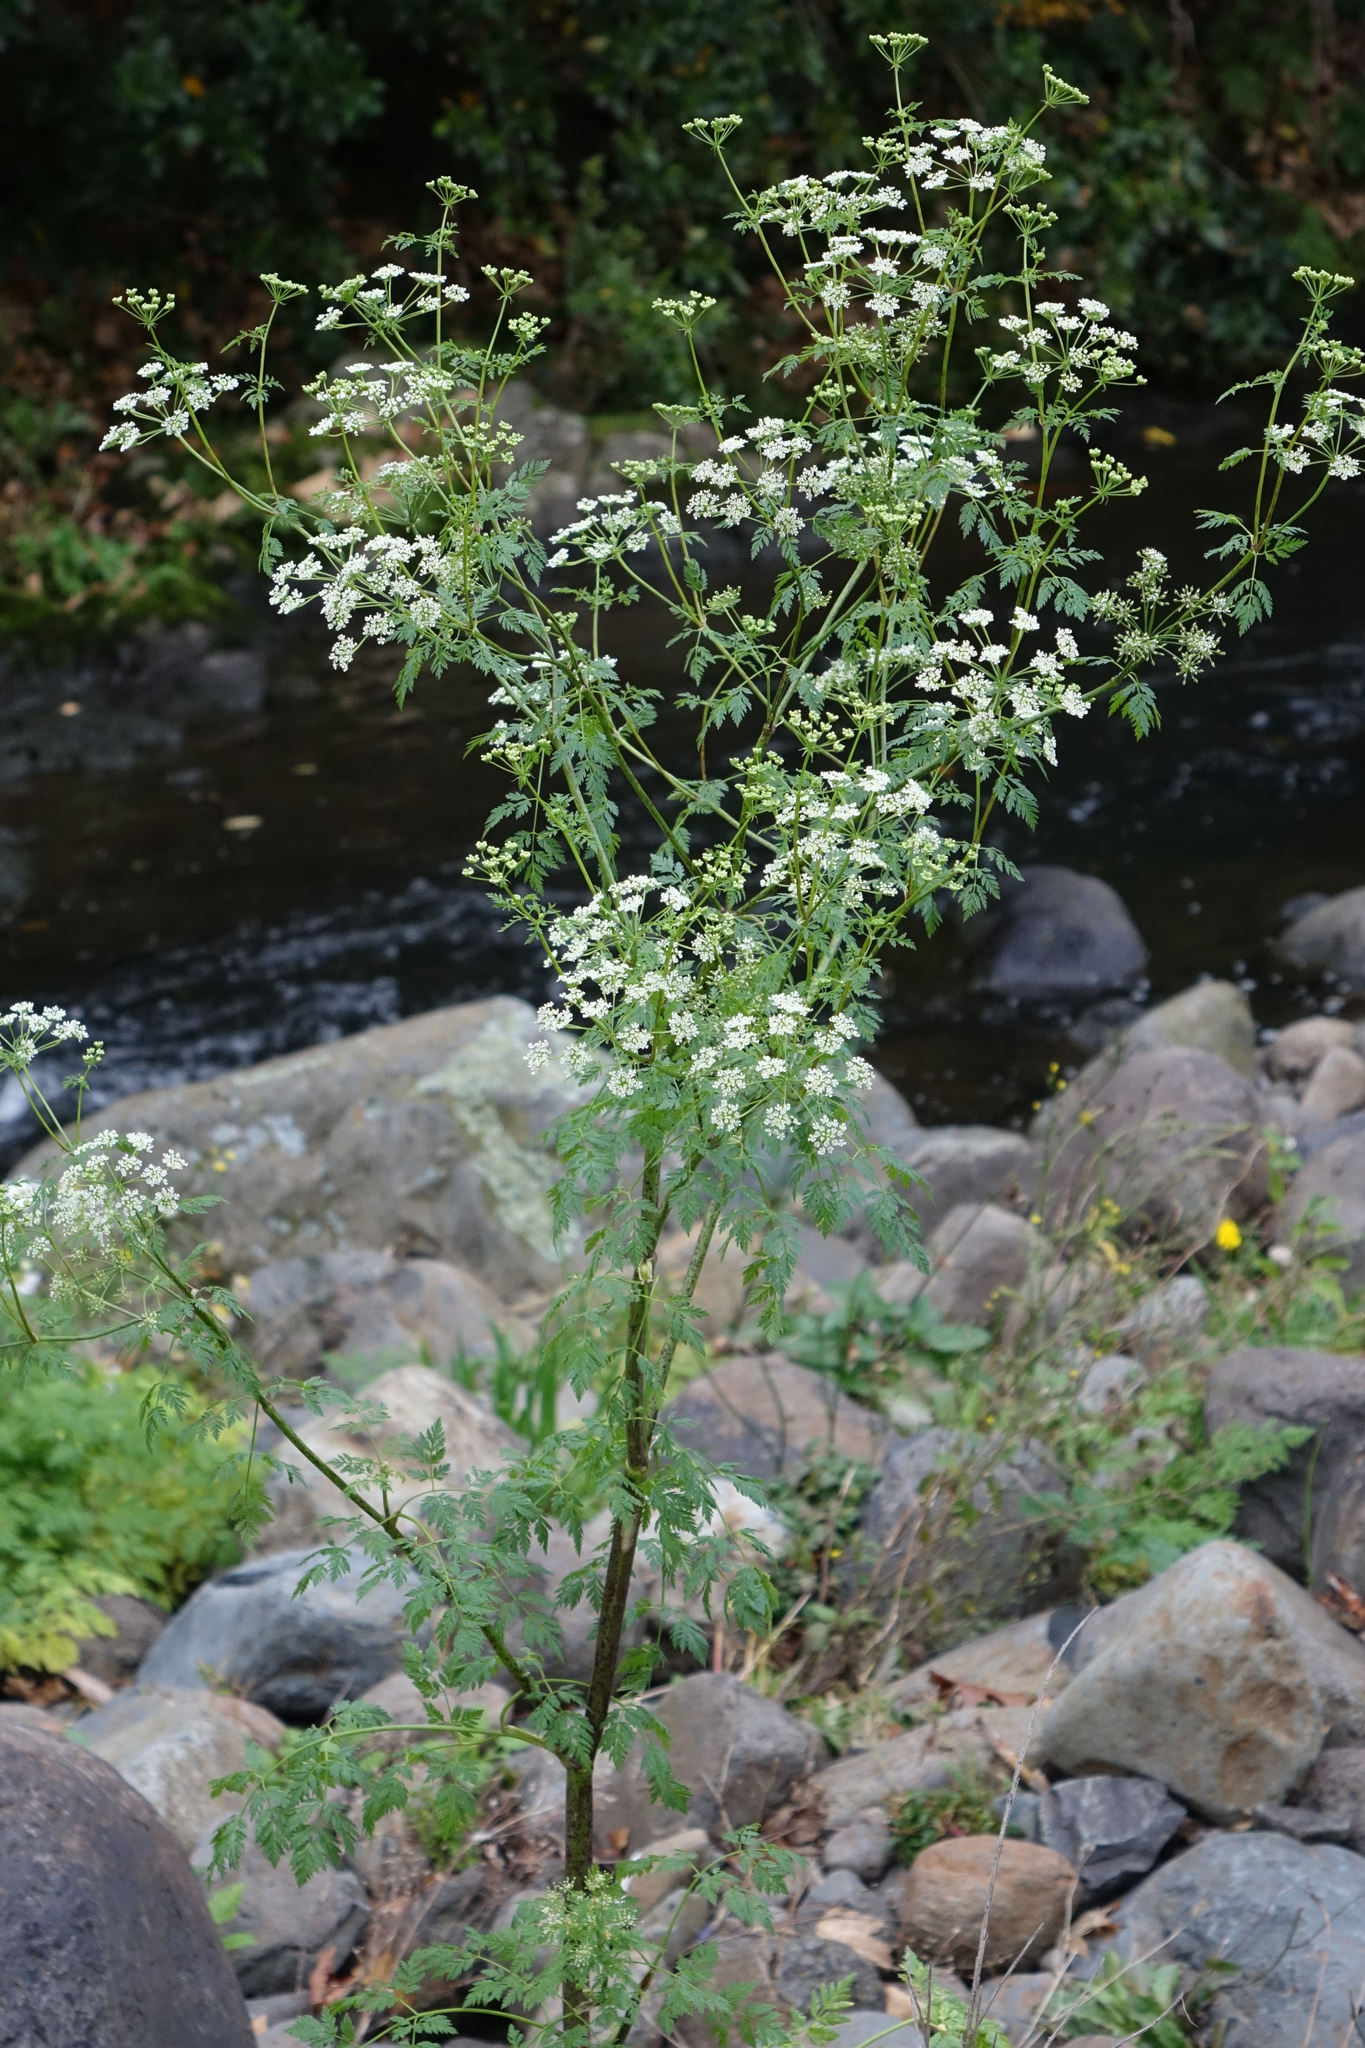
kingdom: Plantae
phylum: Tracheophyta
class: Magnoliopsida
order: Apiales
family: Apiaceae
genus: Conium
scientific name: Conium maculatum
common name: Hemlock
